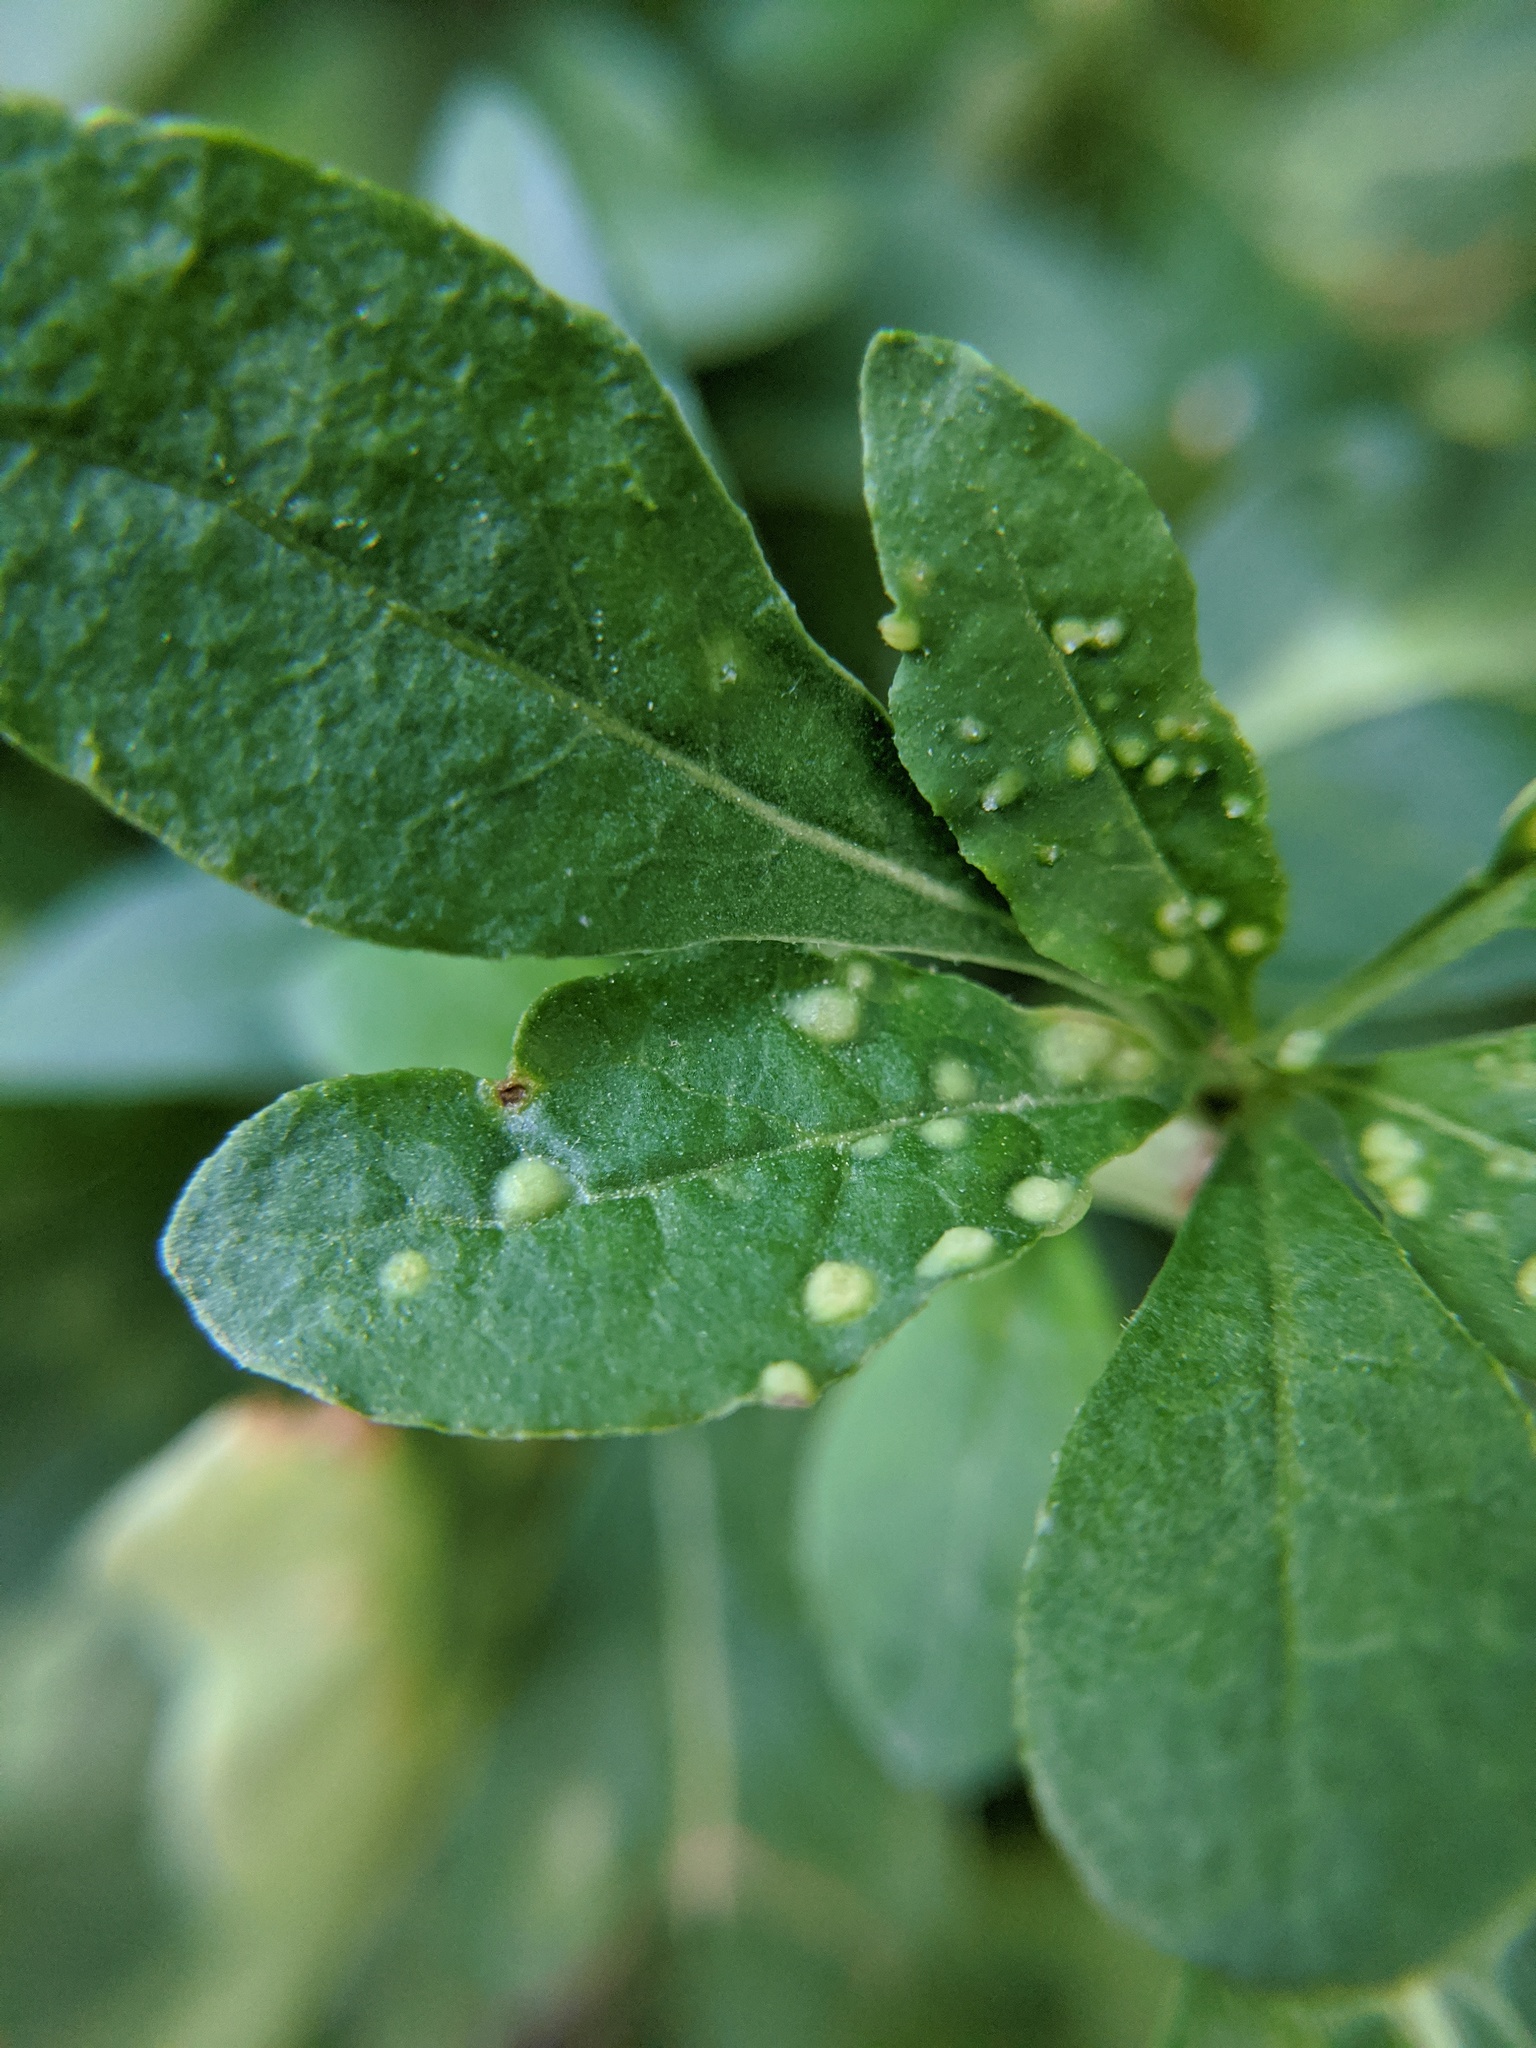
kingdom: Animalia
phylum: Arthropoda
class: Arachnida
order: Trombidiformes
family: Eriophyidae
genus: Aceria
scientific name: Aceria kuko
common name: Goji gall mite
